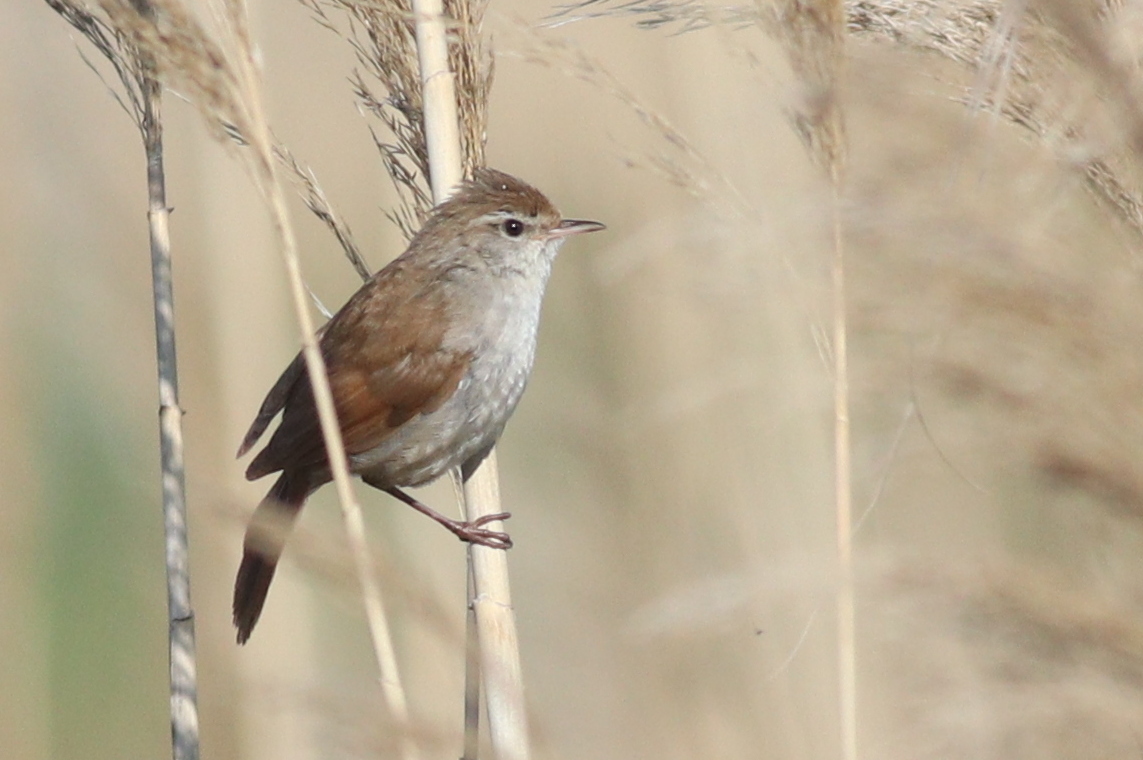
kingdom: Animalia
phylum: Chordata
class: Aves
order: Passeriformes
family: Cettiidae
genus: Cettia
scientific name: Cettia cetti
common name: Cetti's warbler
